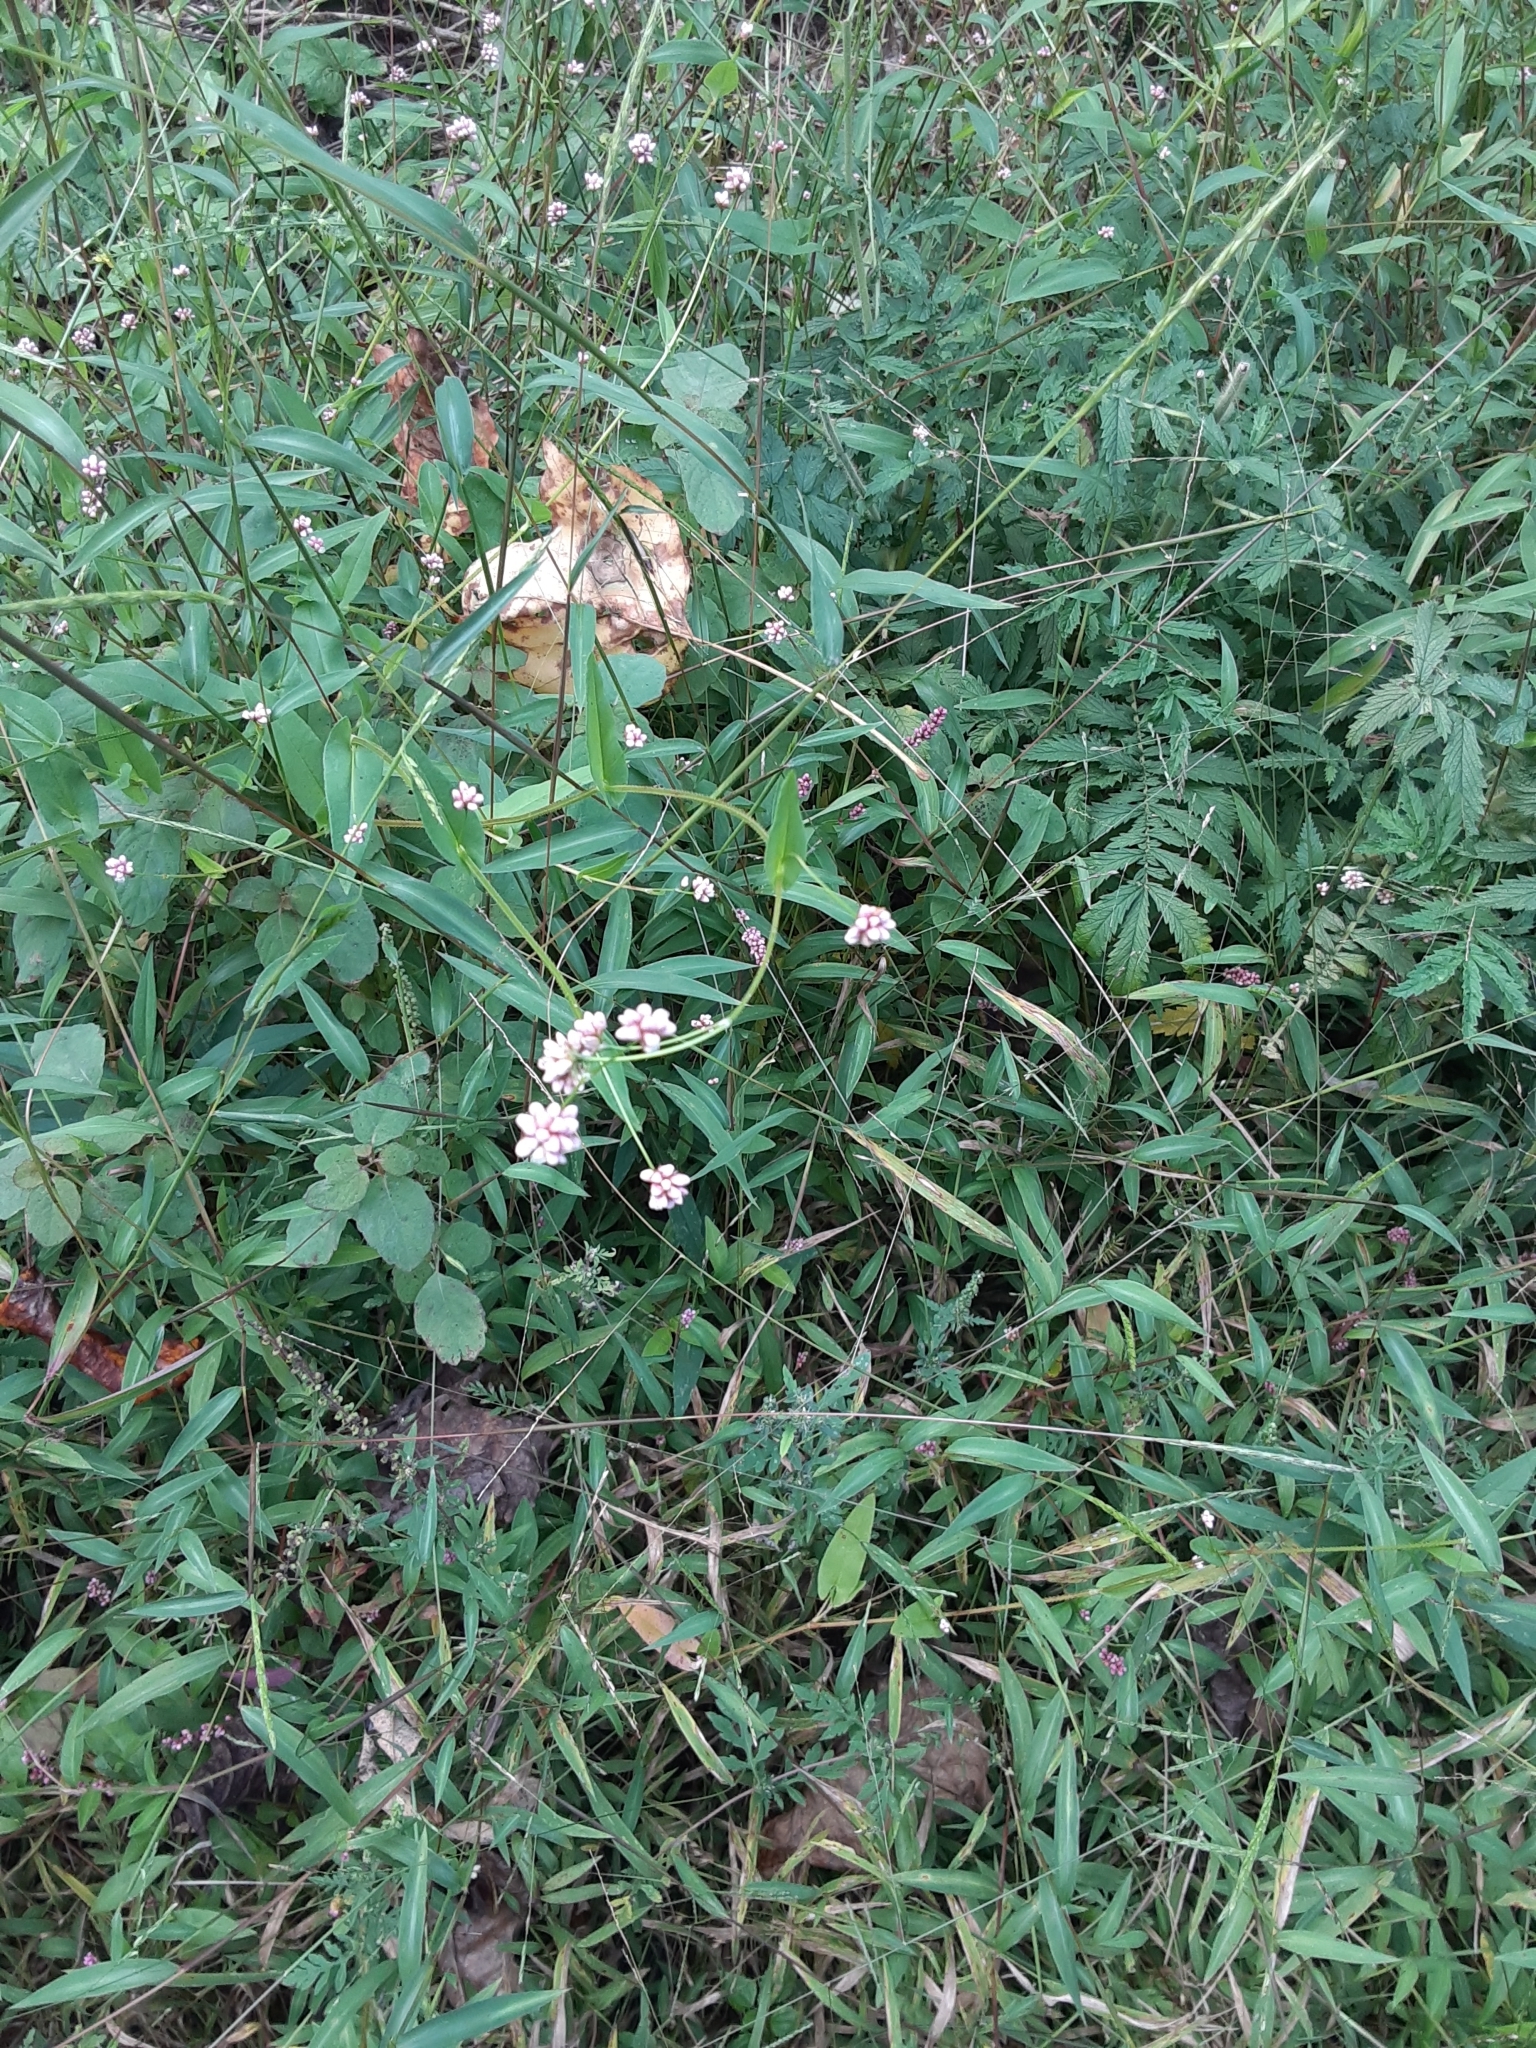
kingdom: Plantae
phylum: Tracheophyta
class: Magnoliopsida
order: Caryophyllales
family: Polygonaceae
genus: Persicaria
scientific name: Persicaria sagittata
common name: American tearthumb
